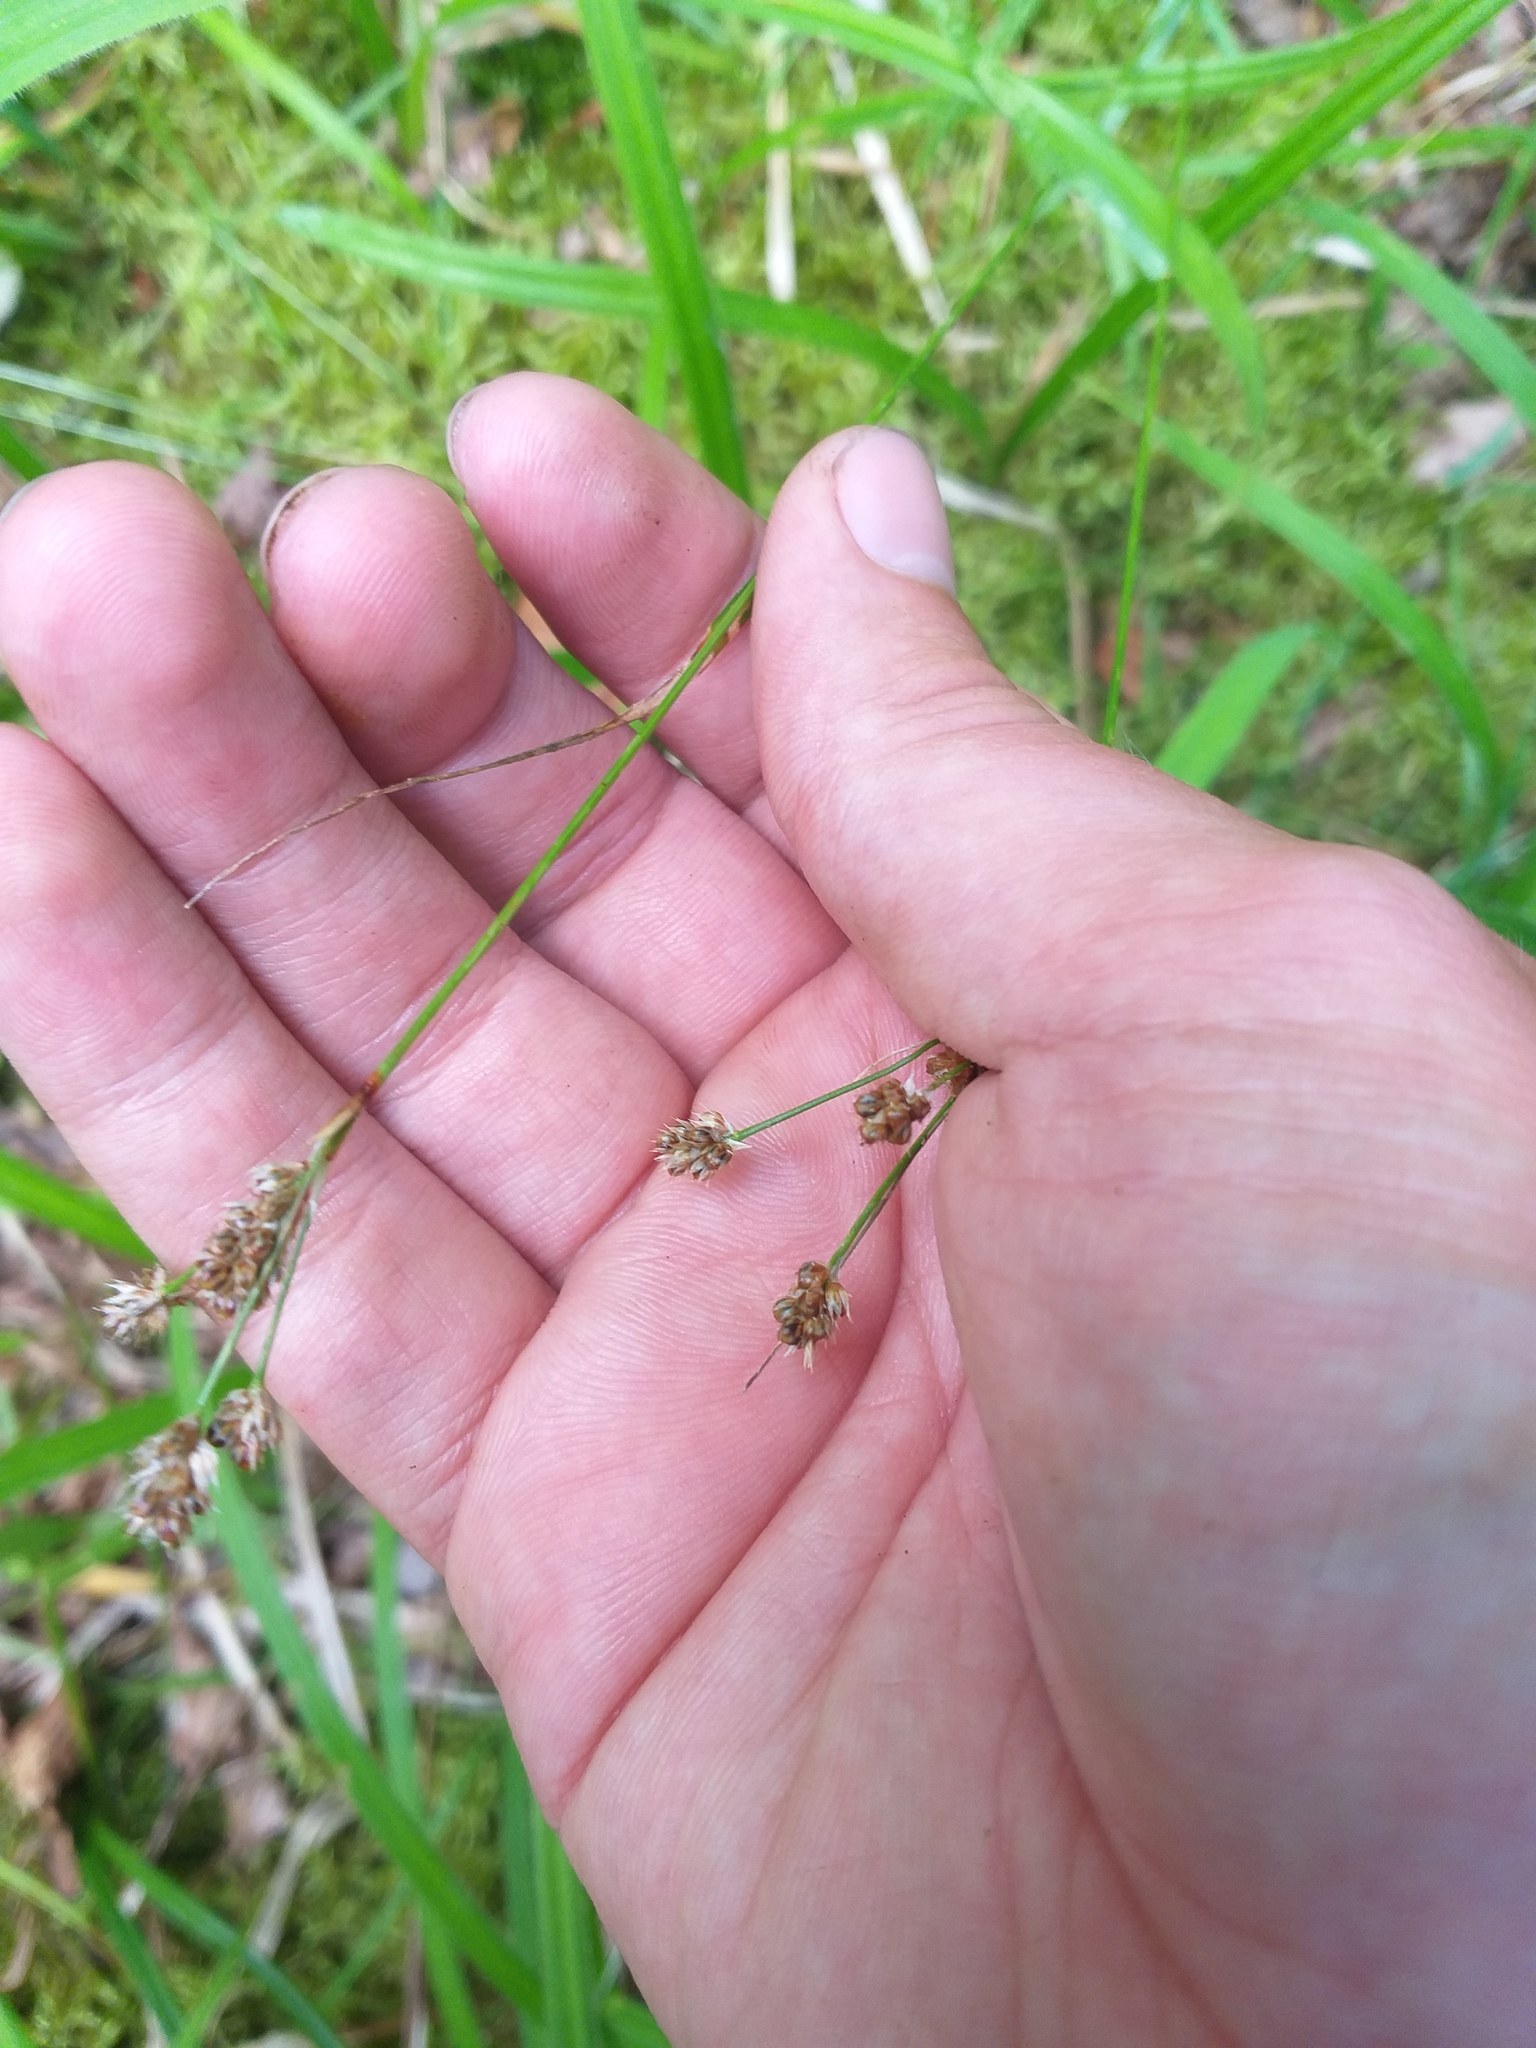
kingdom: Plantae
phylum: Tracheophyta
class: Liliopsida
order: Poales
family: Juncaceae
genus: Luzula
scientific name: Luzula pallescens
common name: Fen wood-rush
